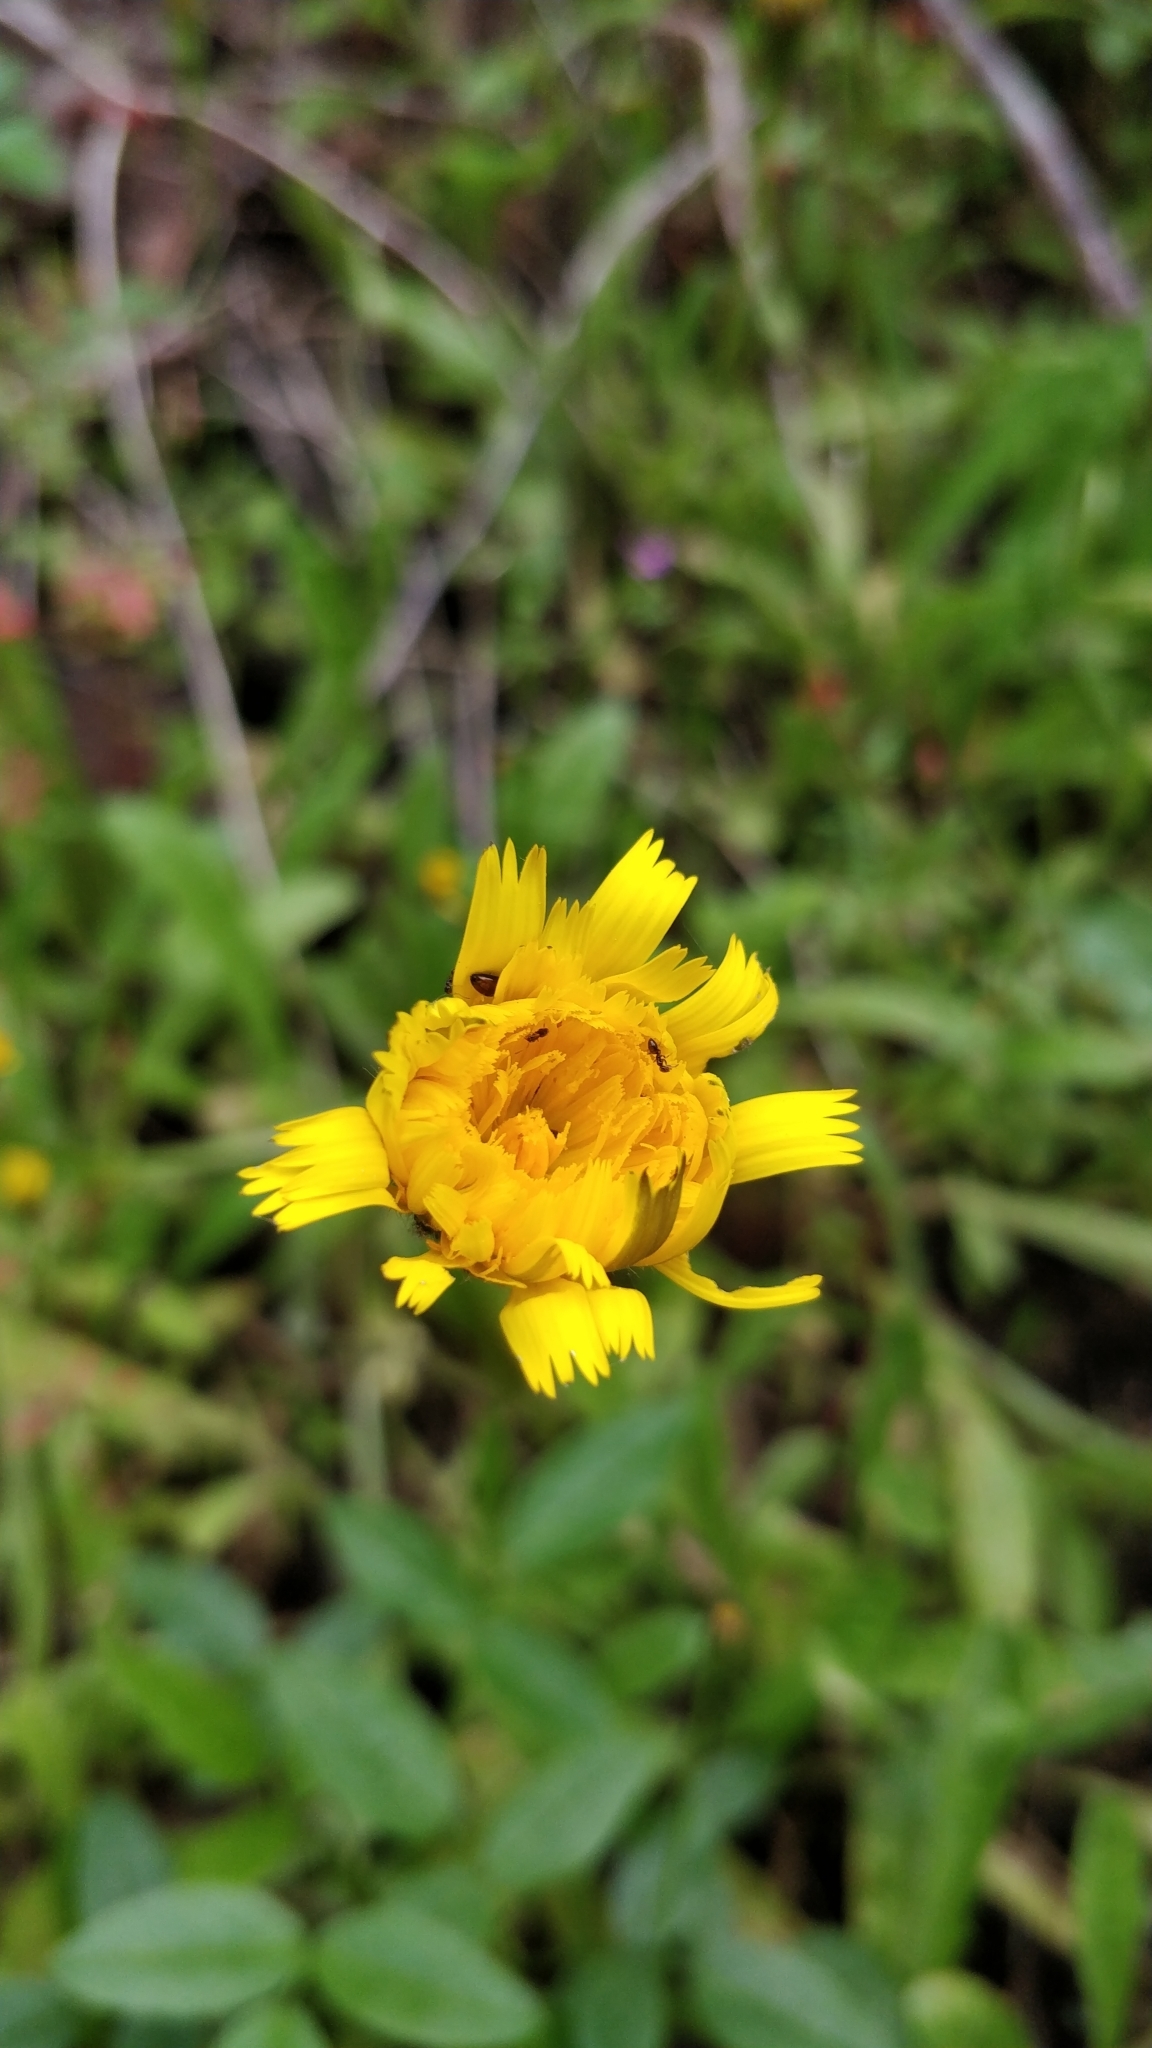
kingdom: Plantae
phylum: Tracheophyta
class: Magnoliopsida
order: Asterales
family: Asteraceae
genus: Hypochaeris
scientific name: Hypochaeris radicata
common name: Flatweed
